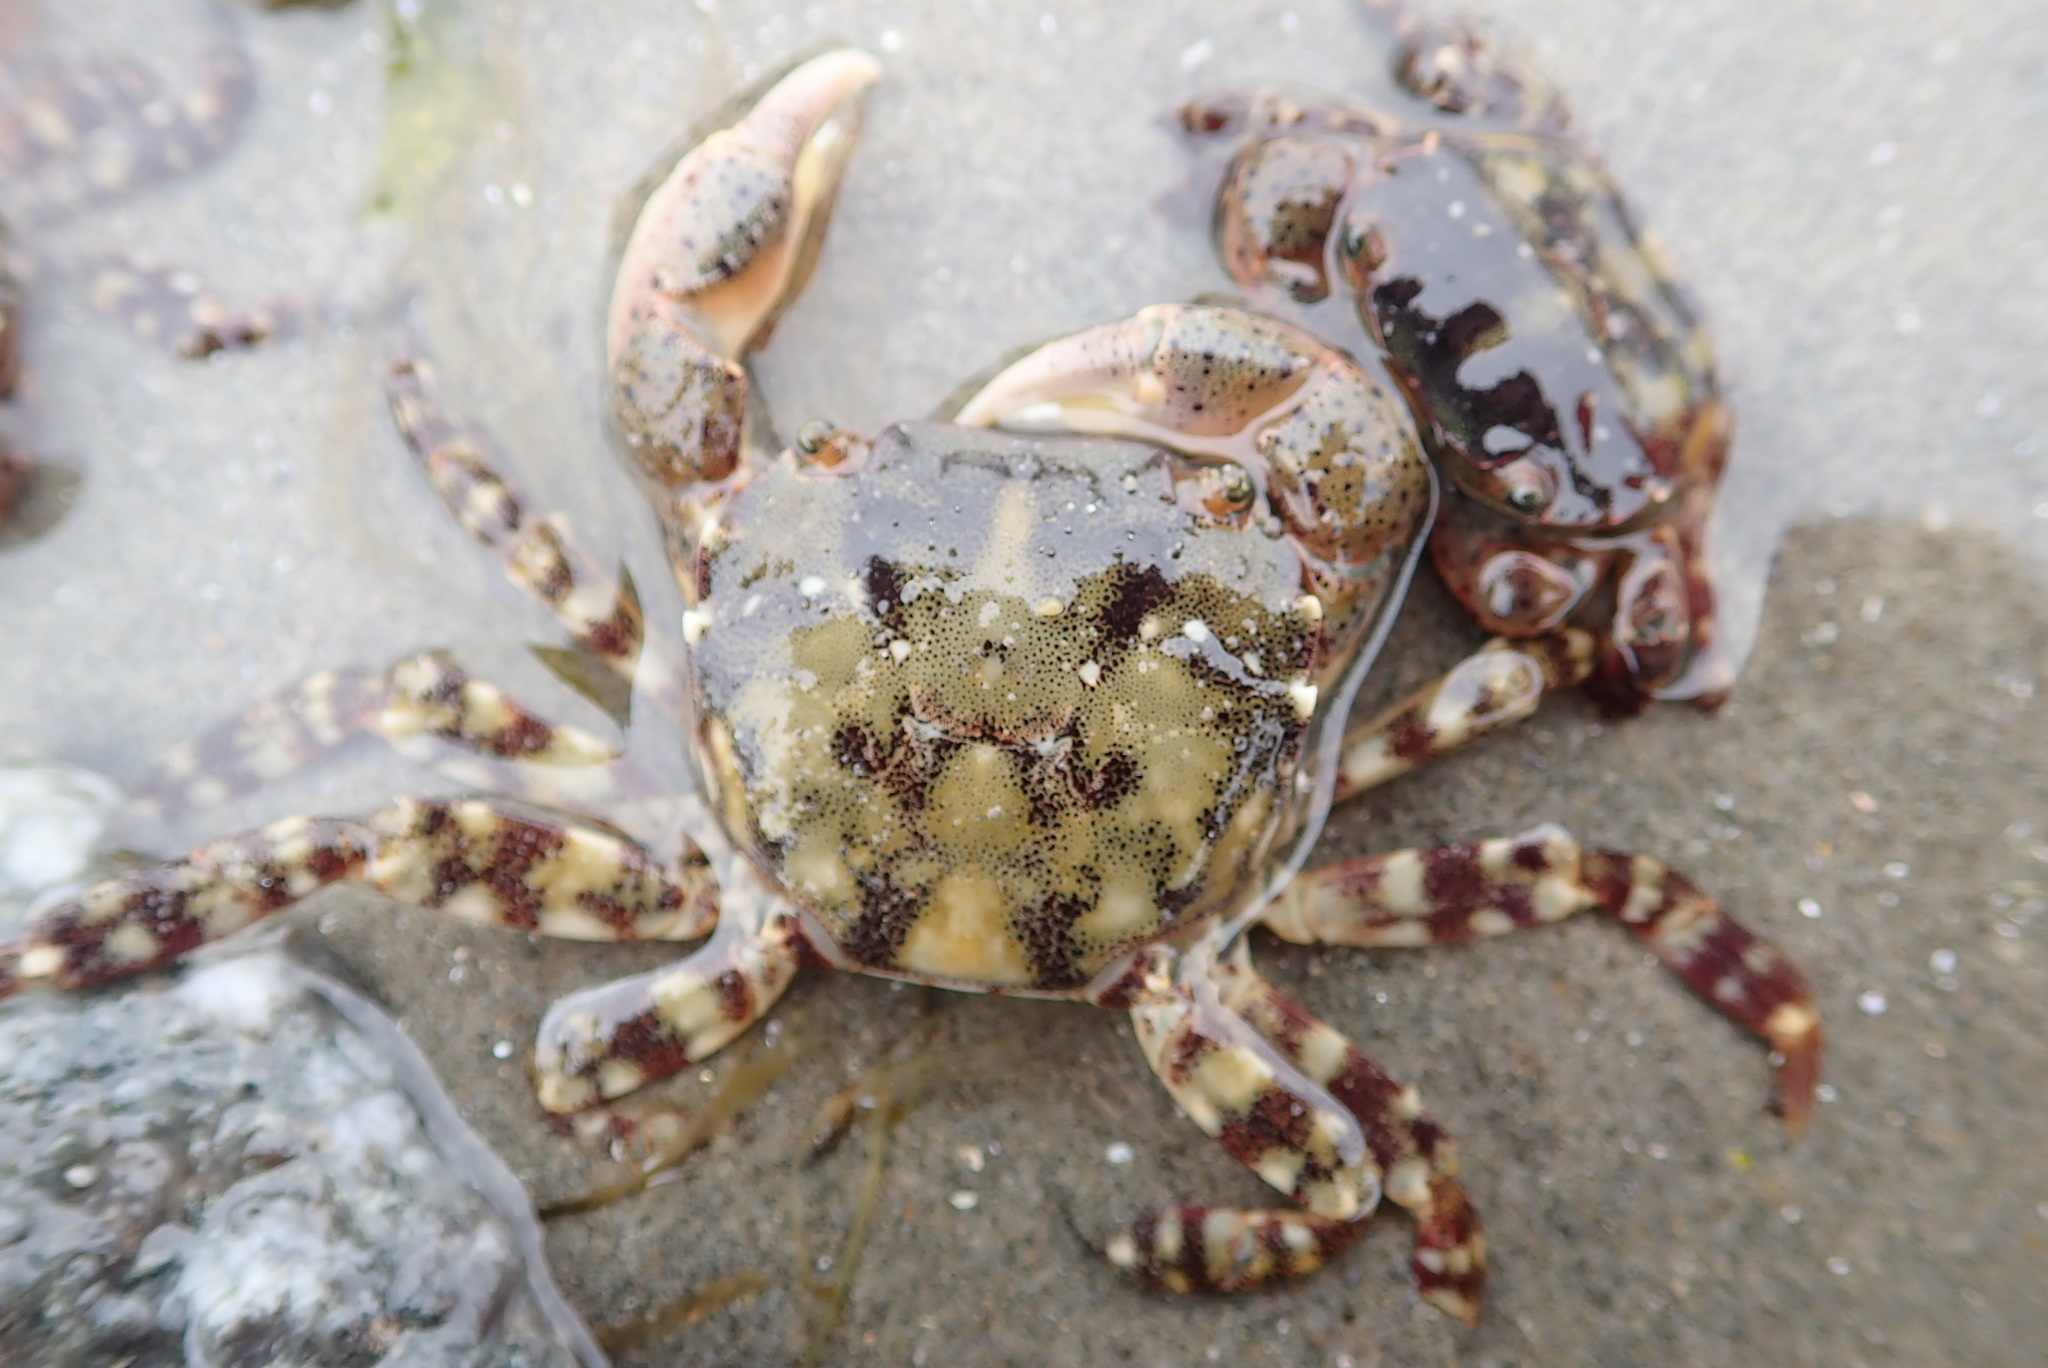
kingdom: Animalia
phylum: Arthropoda
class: Malacostraca
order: Decapoda
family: Varunidae
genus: Hemigrapsus
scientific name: Hemigrapsus sanguineus
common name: Asian shore crab
